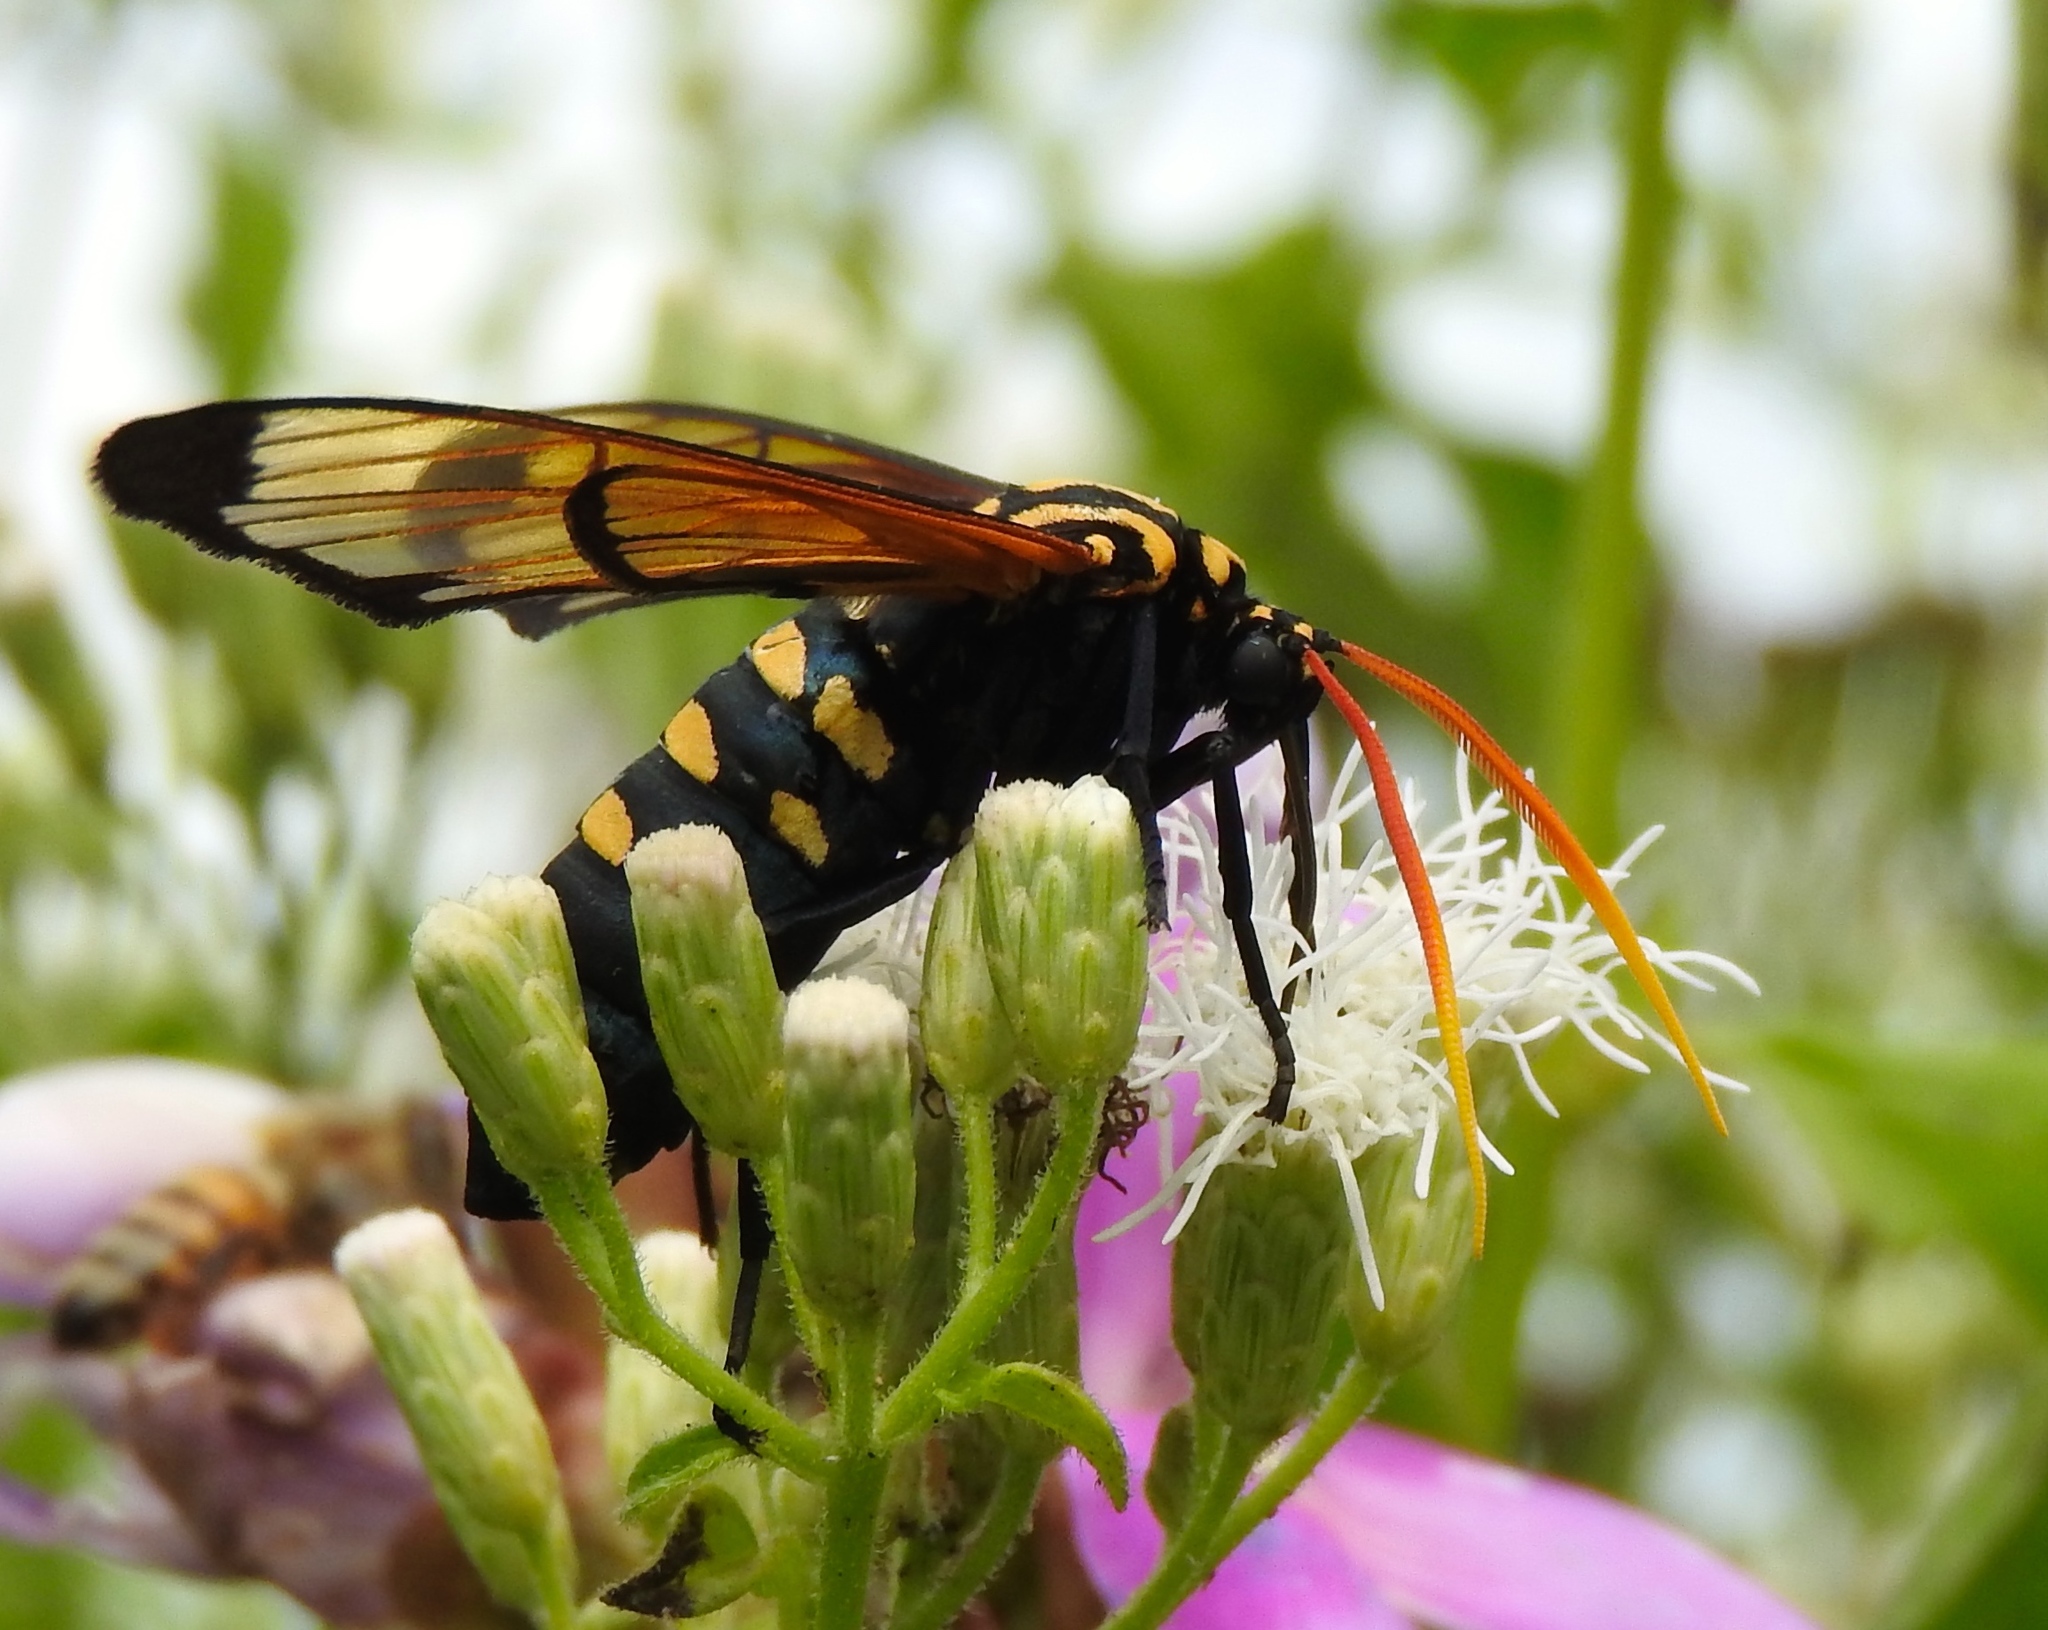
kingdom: Animalia
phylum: Arthropoda
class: Insecta
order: Lepidoptera
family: Erebidae
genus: Isanthrene
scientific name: Isanthrene perboscii
